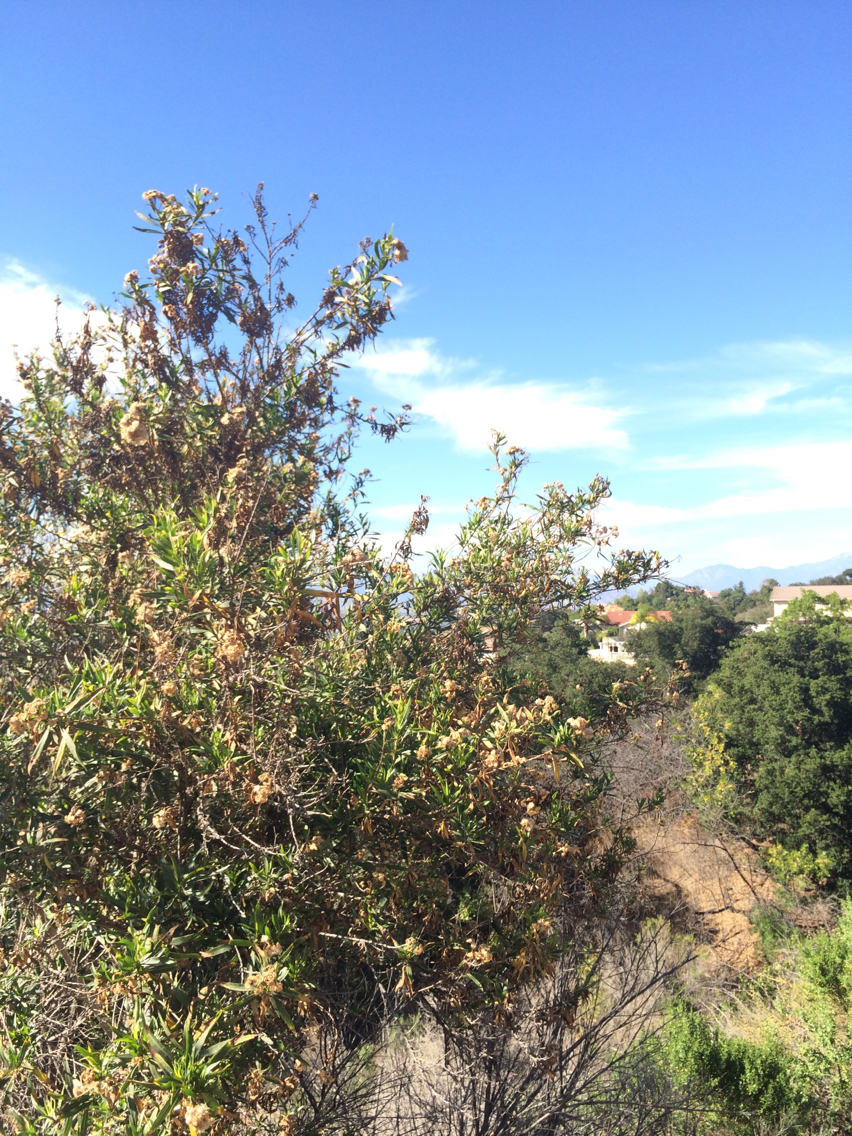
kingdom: Plantae
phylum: Tracheophyta
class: Magnoliopsida
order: Asterales
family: Asteraceae
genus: Baccharis
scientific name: Baccharis salicifolia
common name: Sticky baccharis
